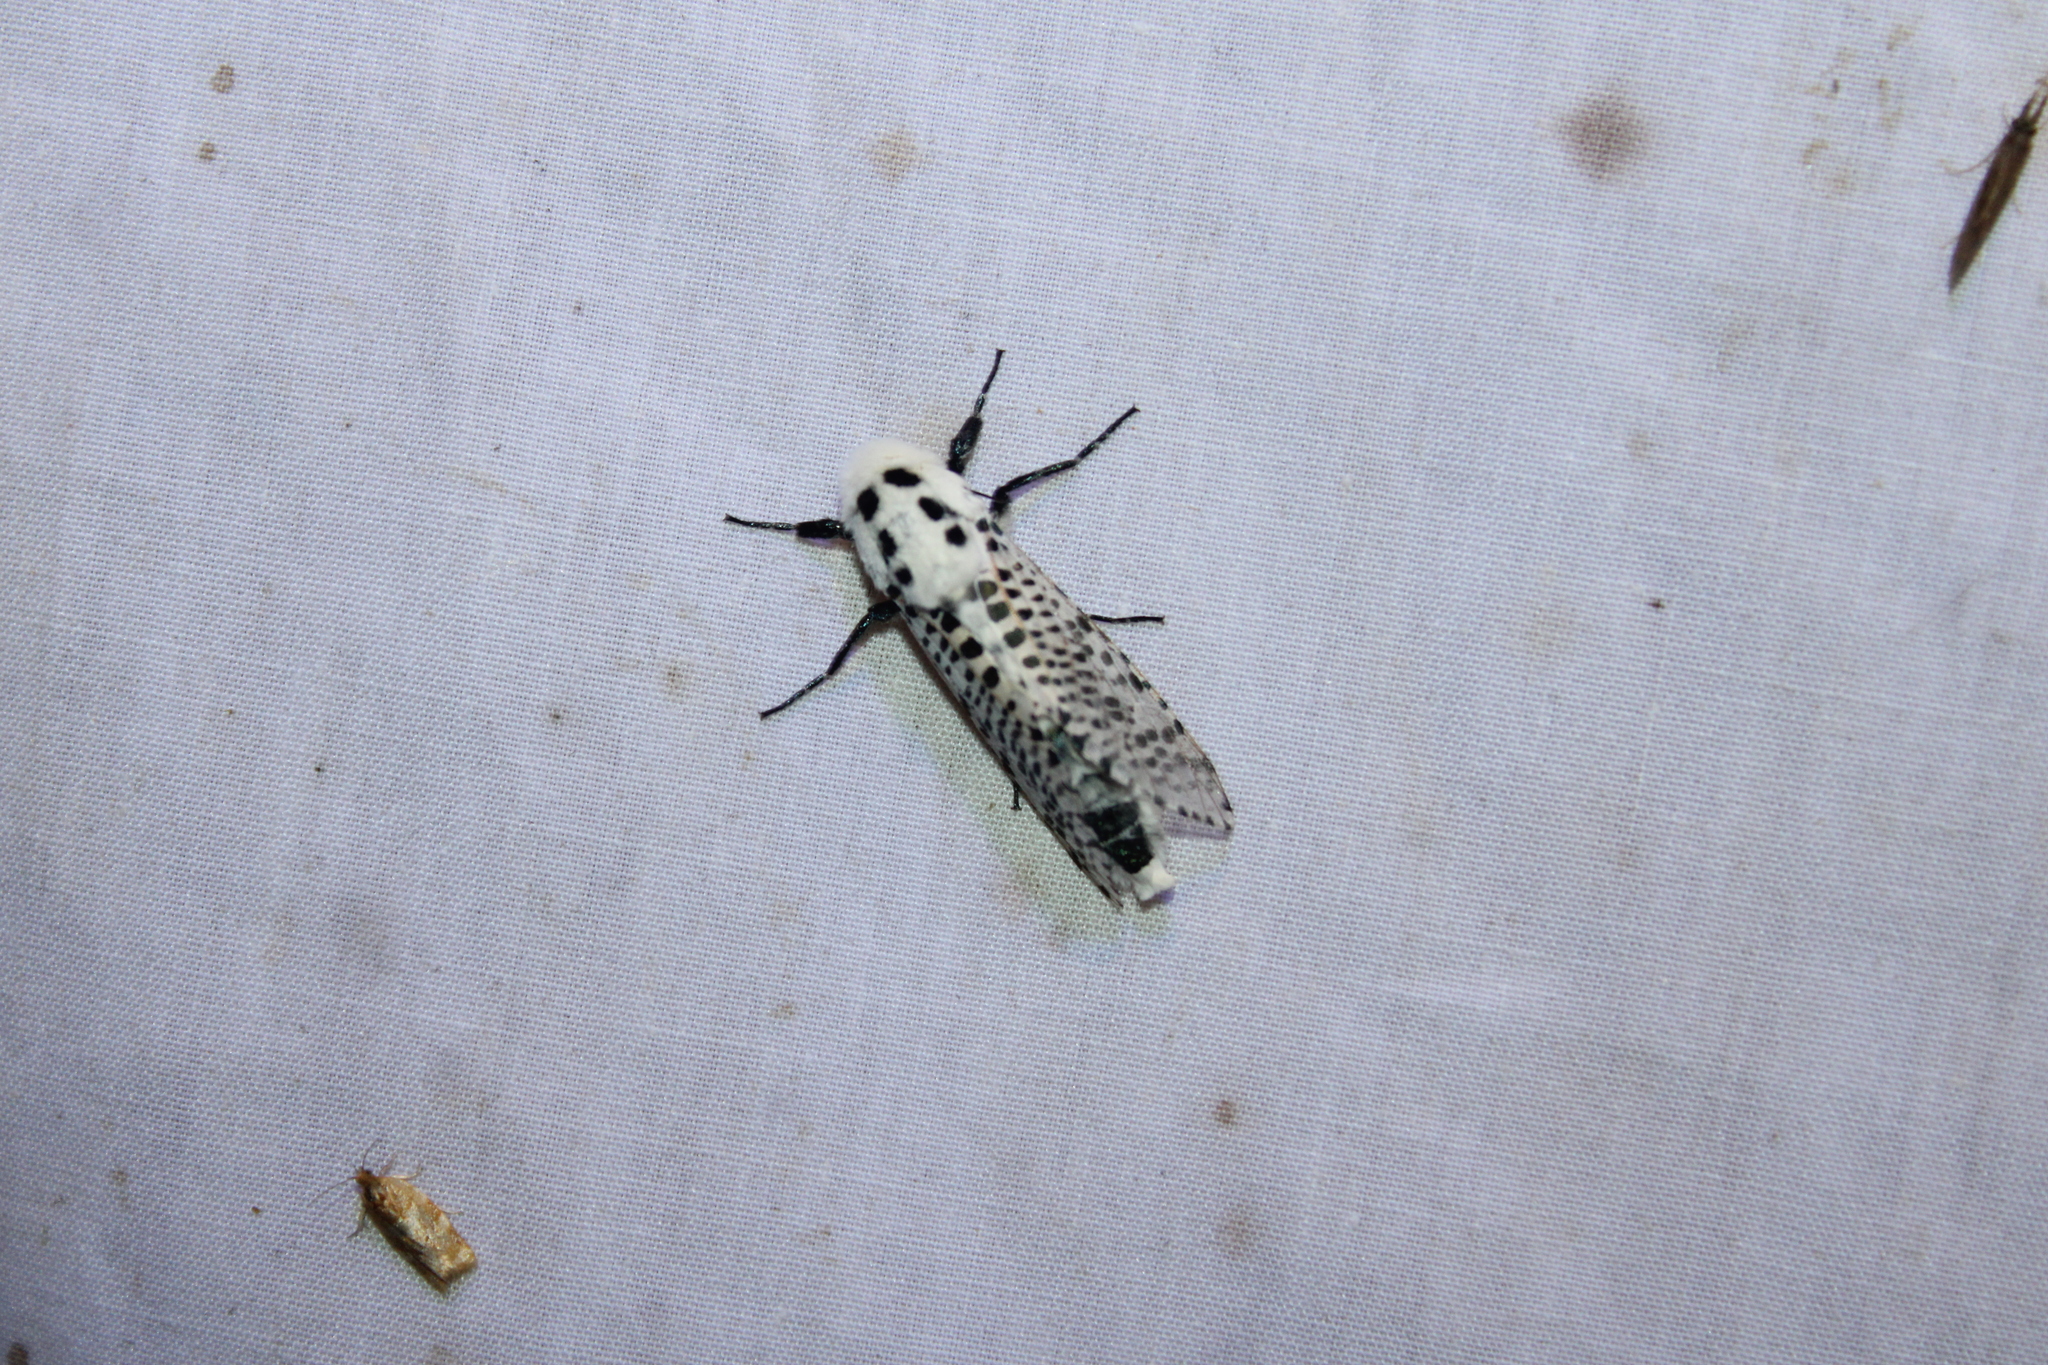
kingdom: Animalia
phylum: Arthropoda
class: Insecta
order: Lepidoptera
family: Cossidae
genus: Zeuzera
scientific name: Zeuzera pyrina
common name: Leopard moth
